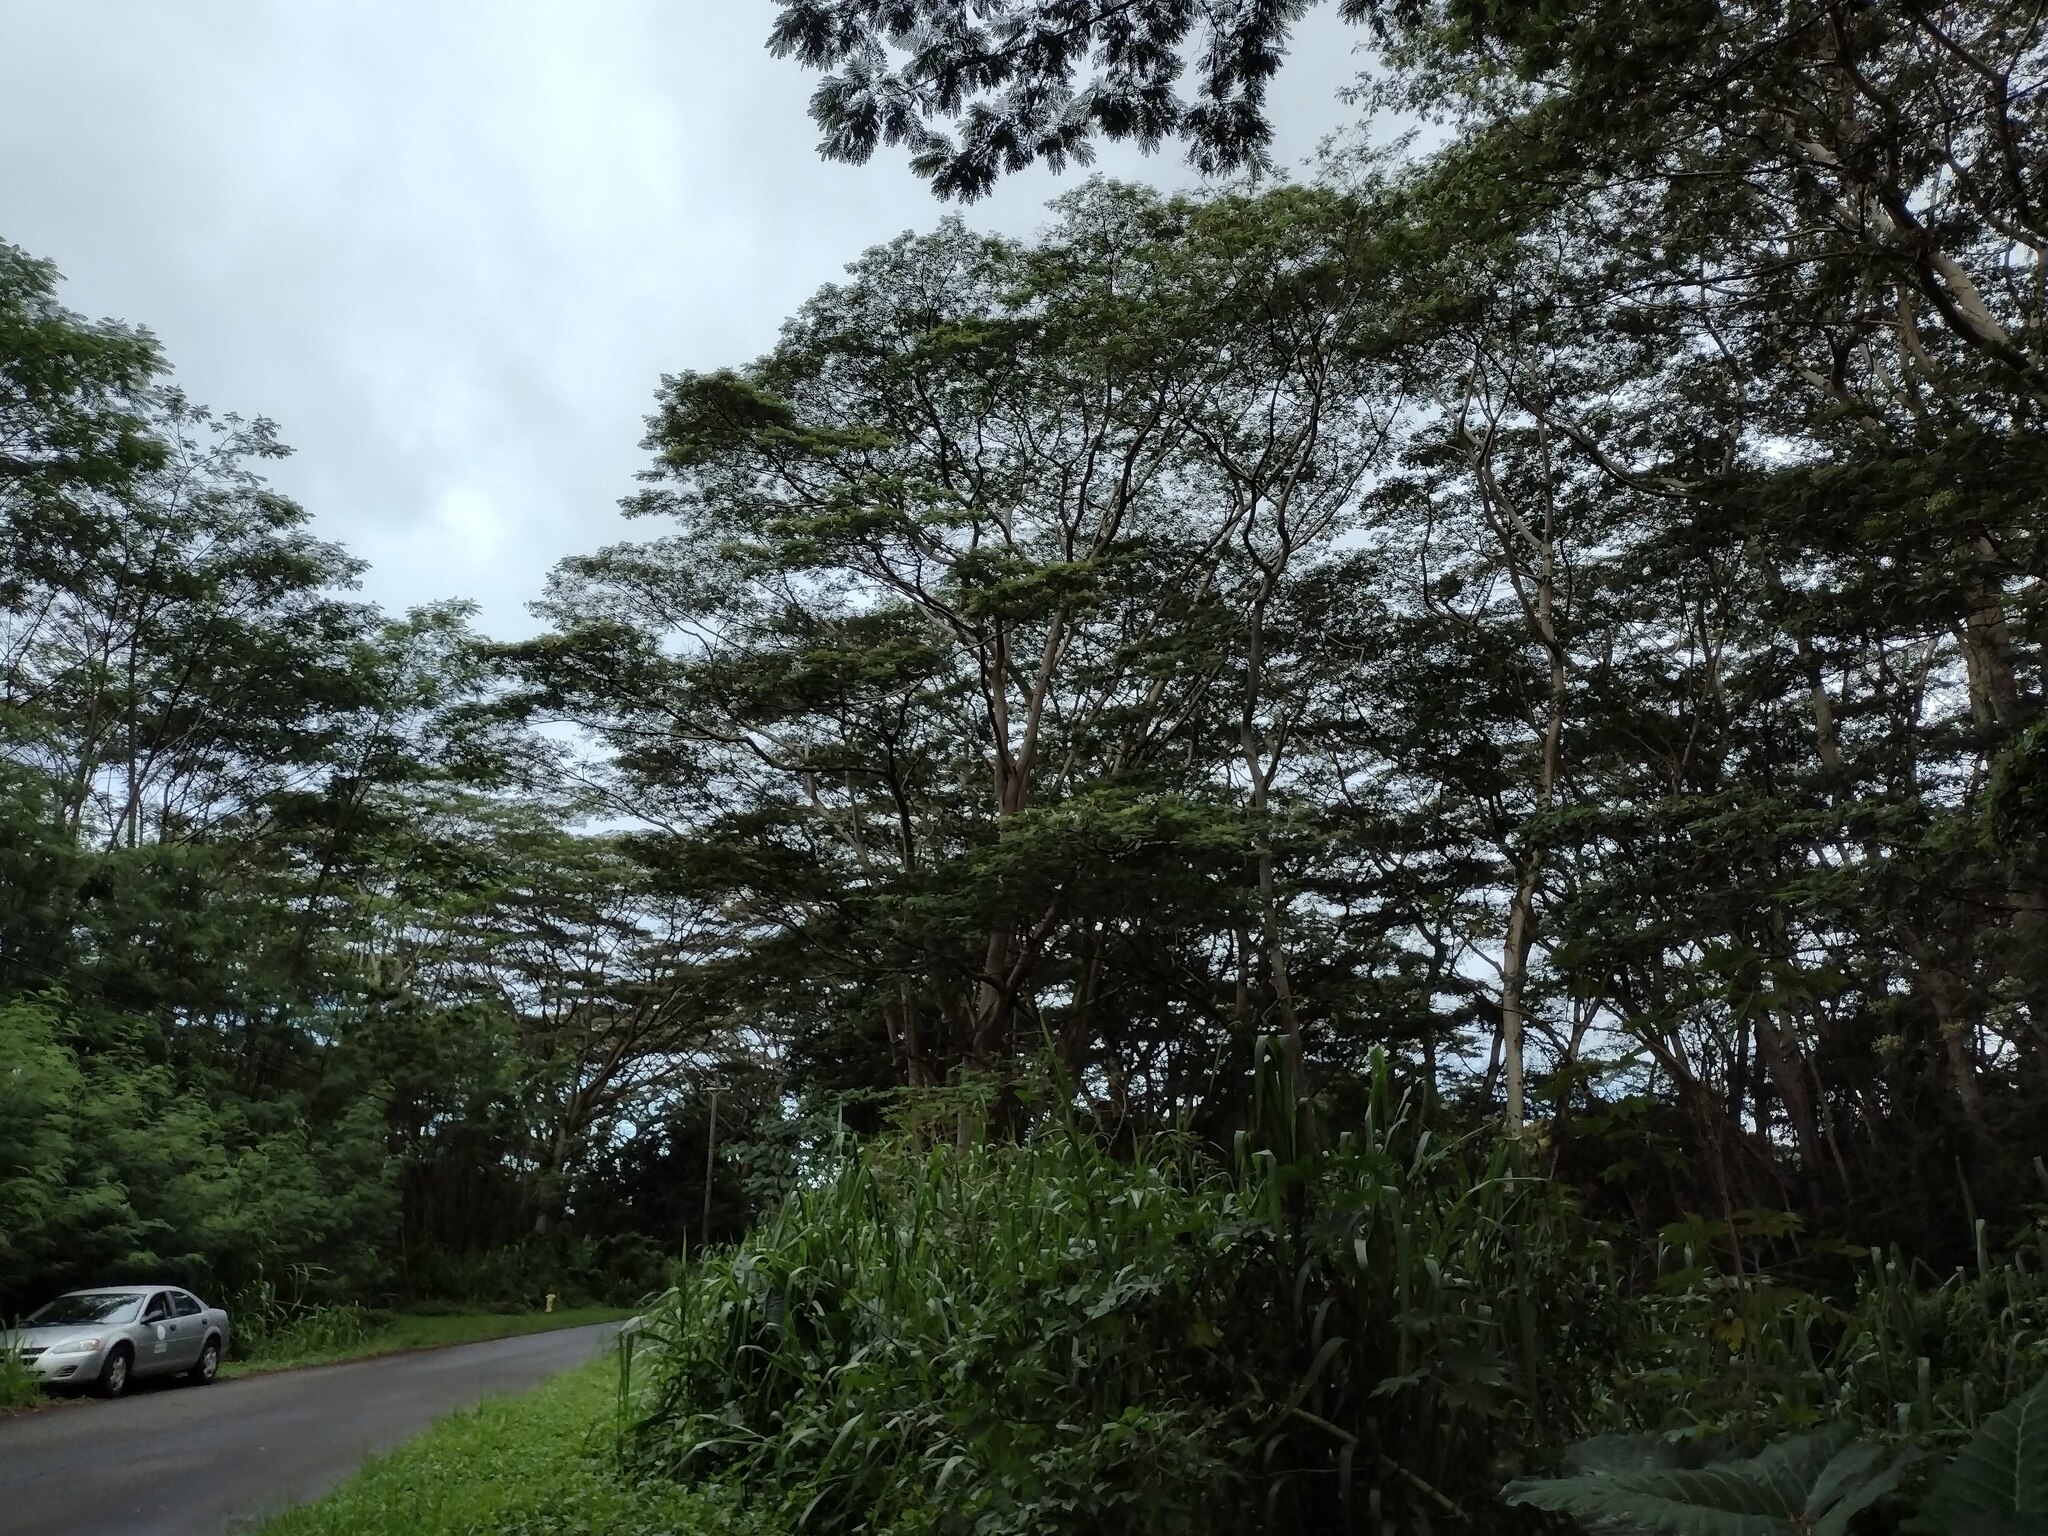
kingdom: Plantae
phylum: Tracheophyta
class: Magnoliopsida
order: Fabales
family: Fabaceae
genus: Falcataria
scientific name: Falcataria falcata
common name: Moluccan albizia
